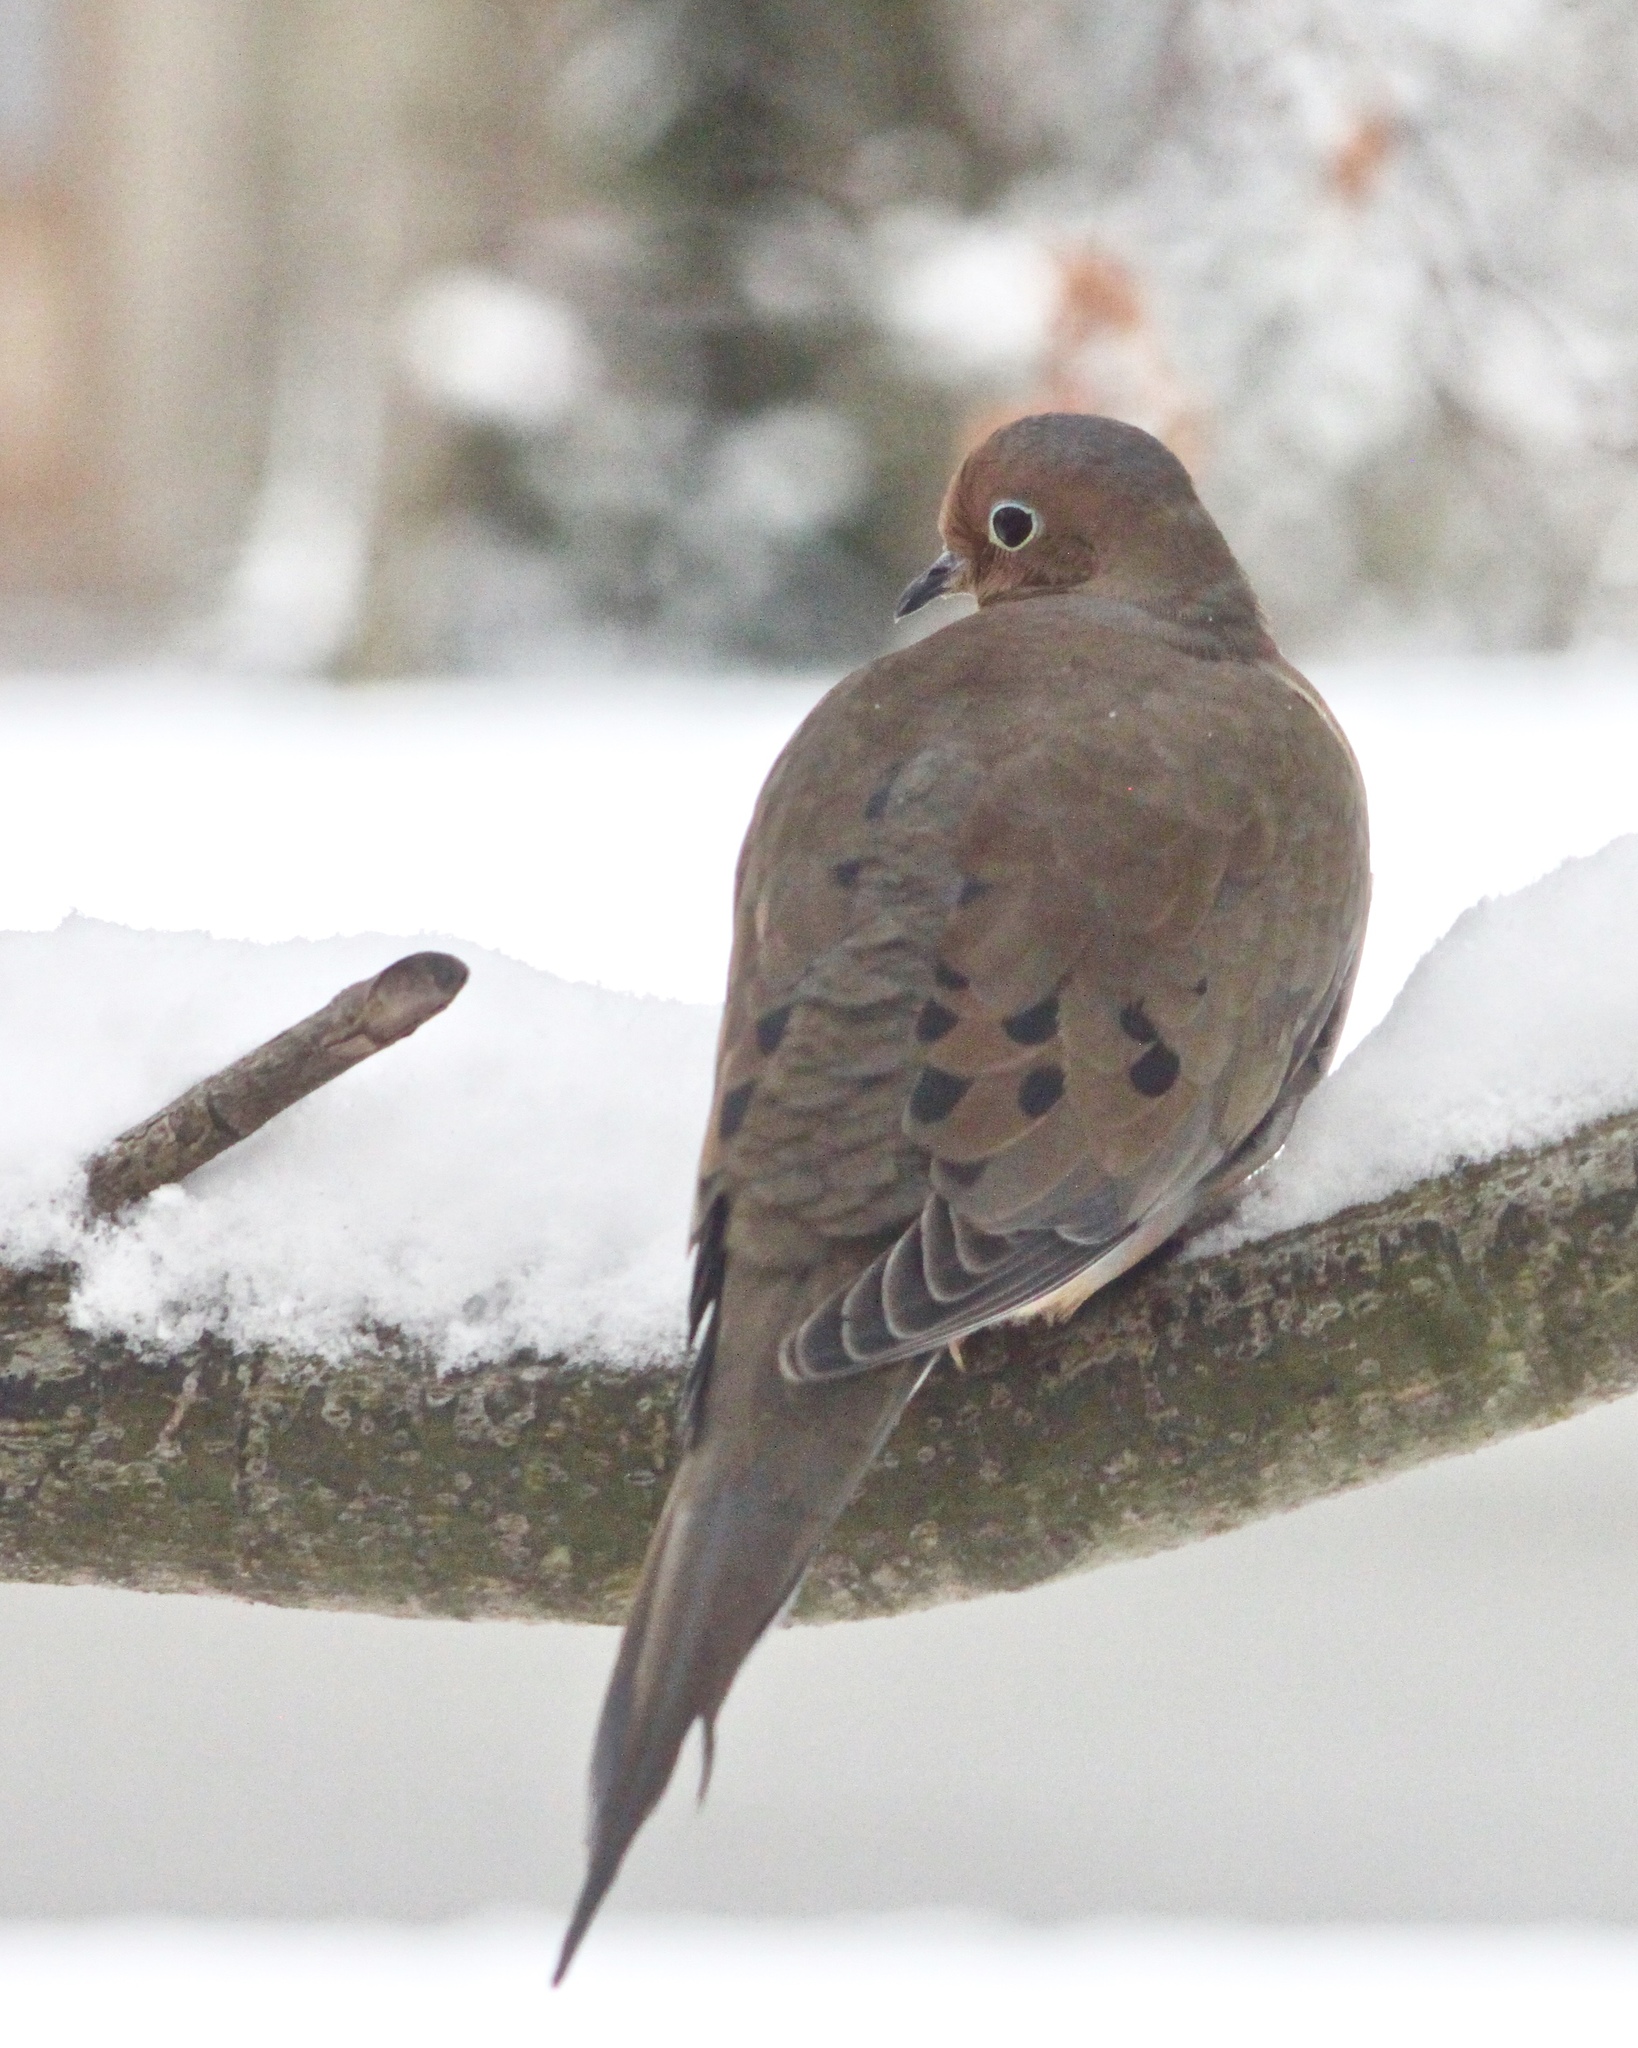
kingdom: Animalia
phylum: Chordata
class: Aves
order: Columbiformes
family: Columbidae
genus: Zenaida
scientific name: Zenaida macroura
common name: Mourning dove
